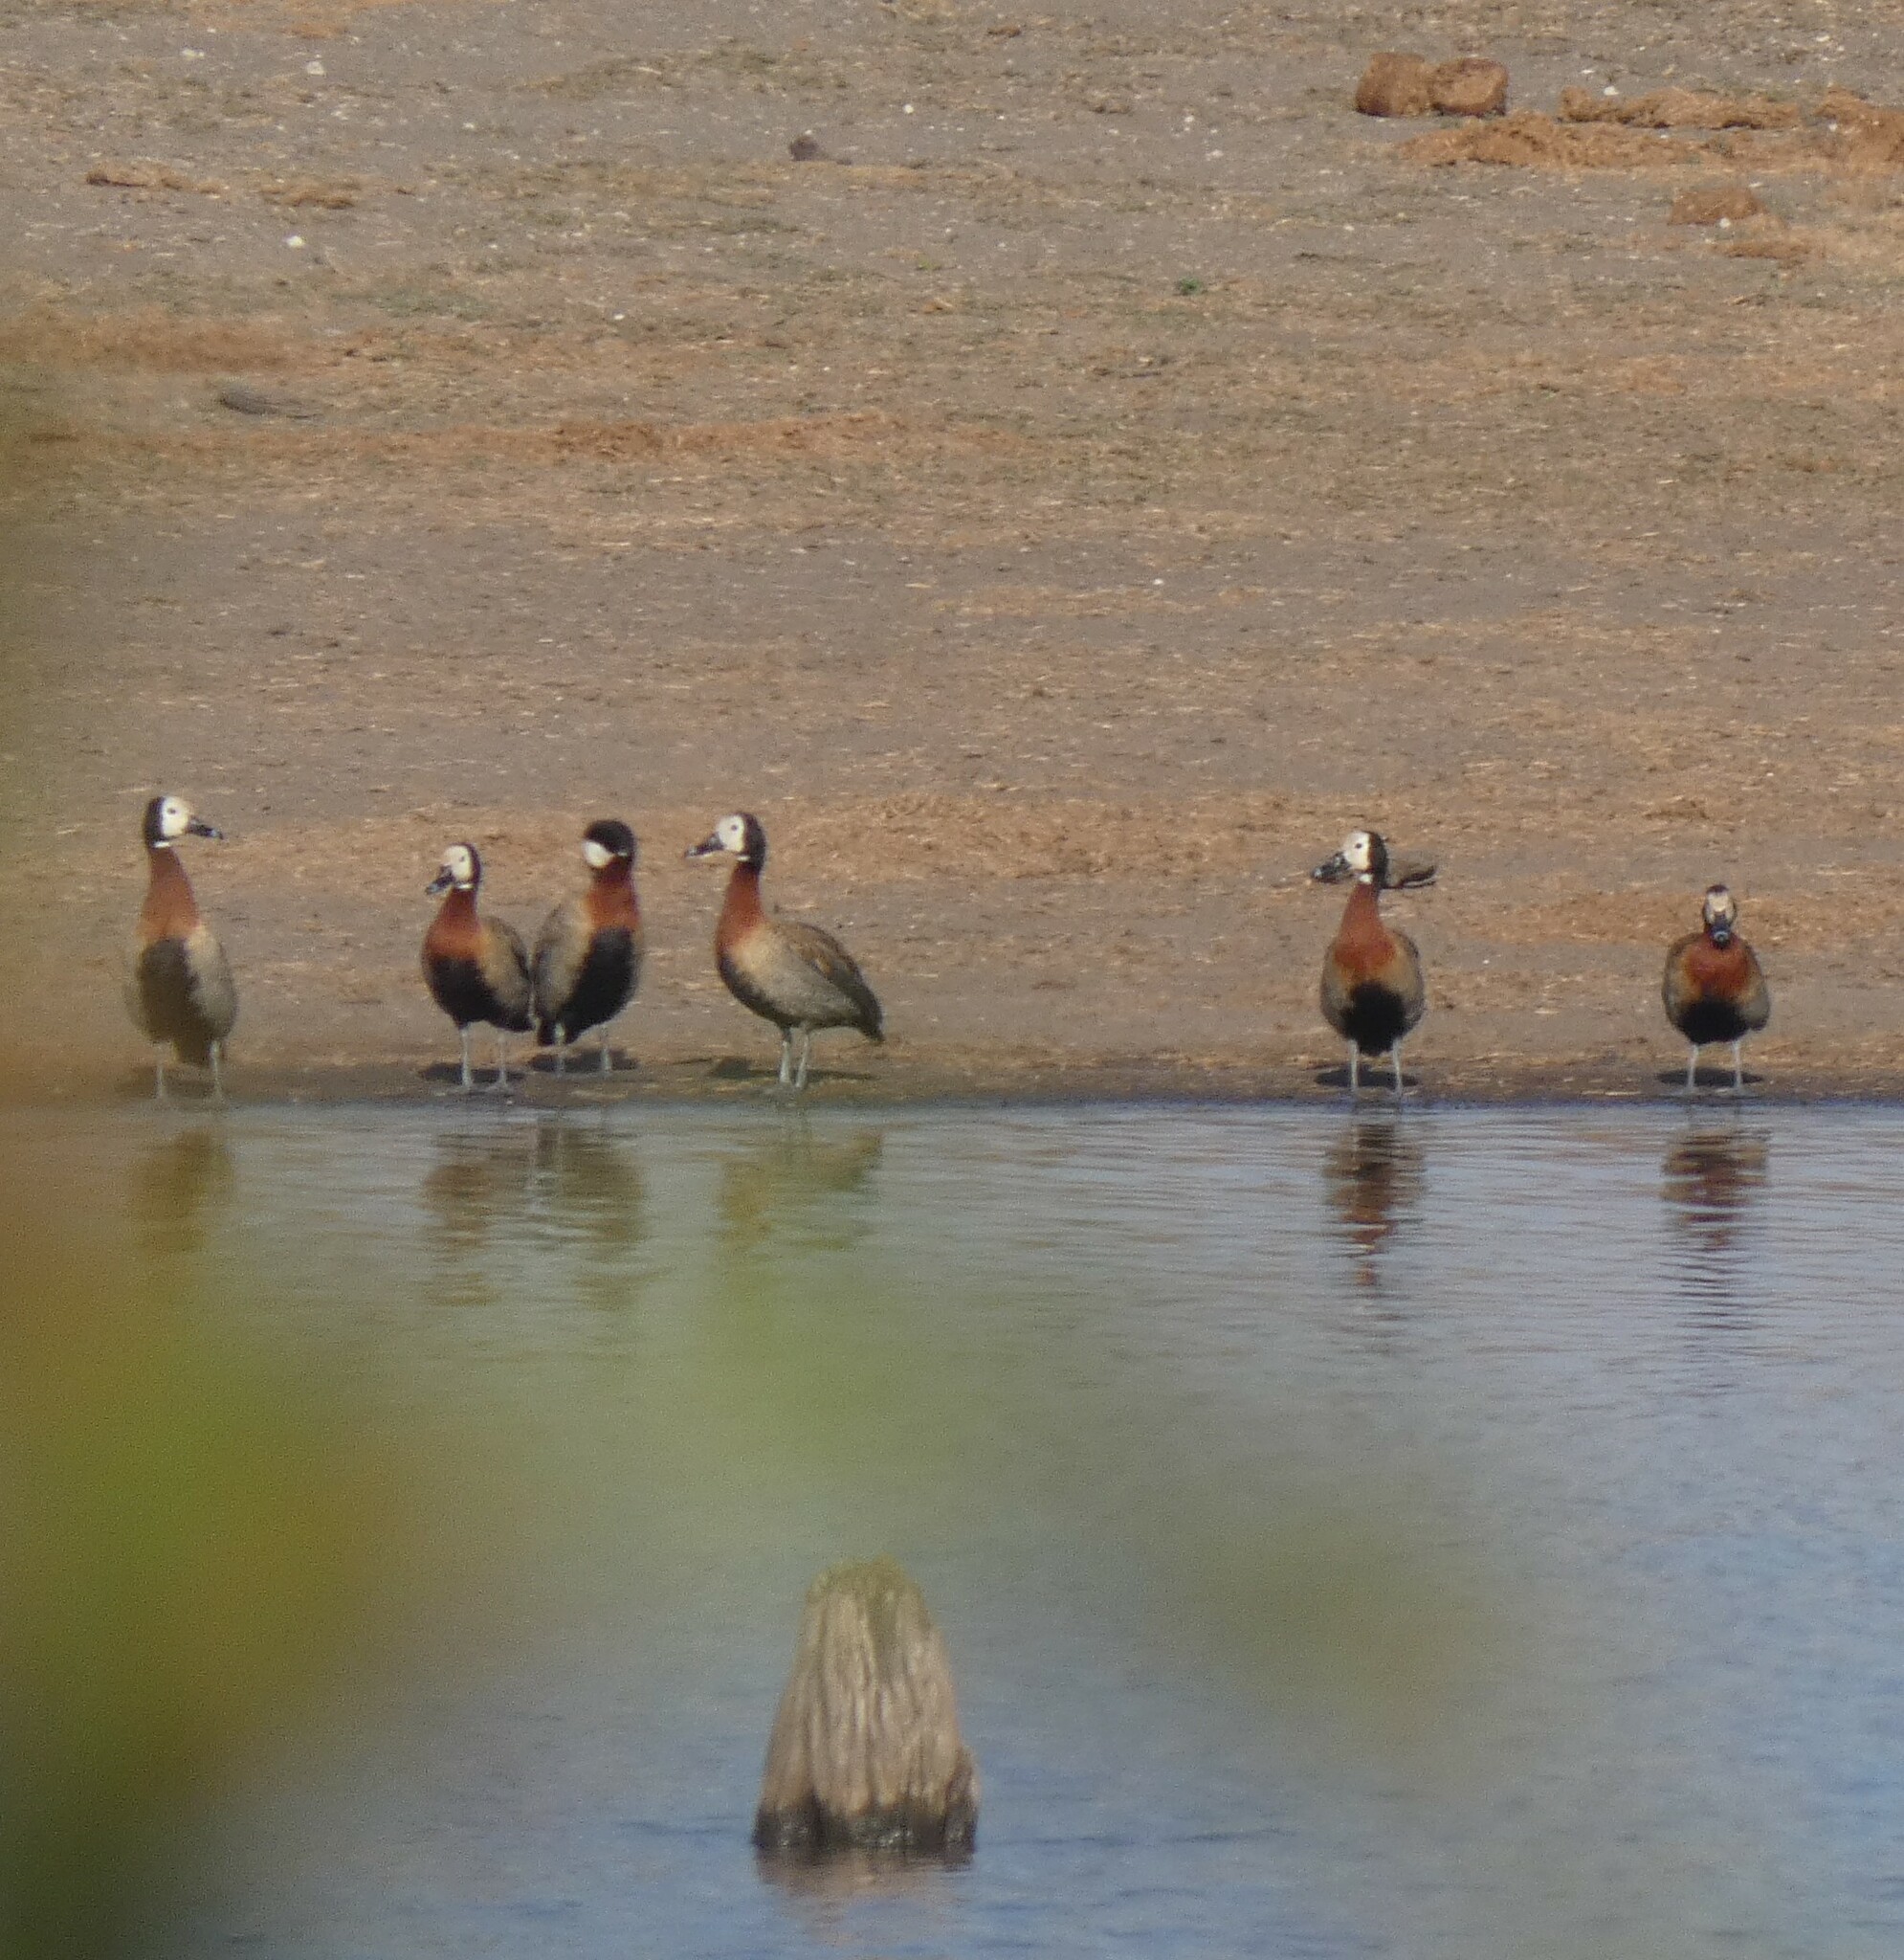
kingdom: Animalia
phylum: Chordata
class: Aves
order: Anseriformes
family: Anatidae
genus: Dendrocygna
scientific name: Dendrocygna viduata
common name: White-faced whistling duck
